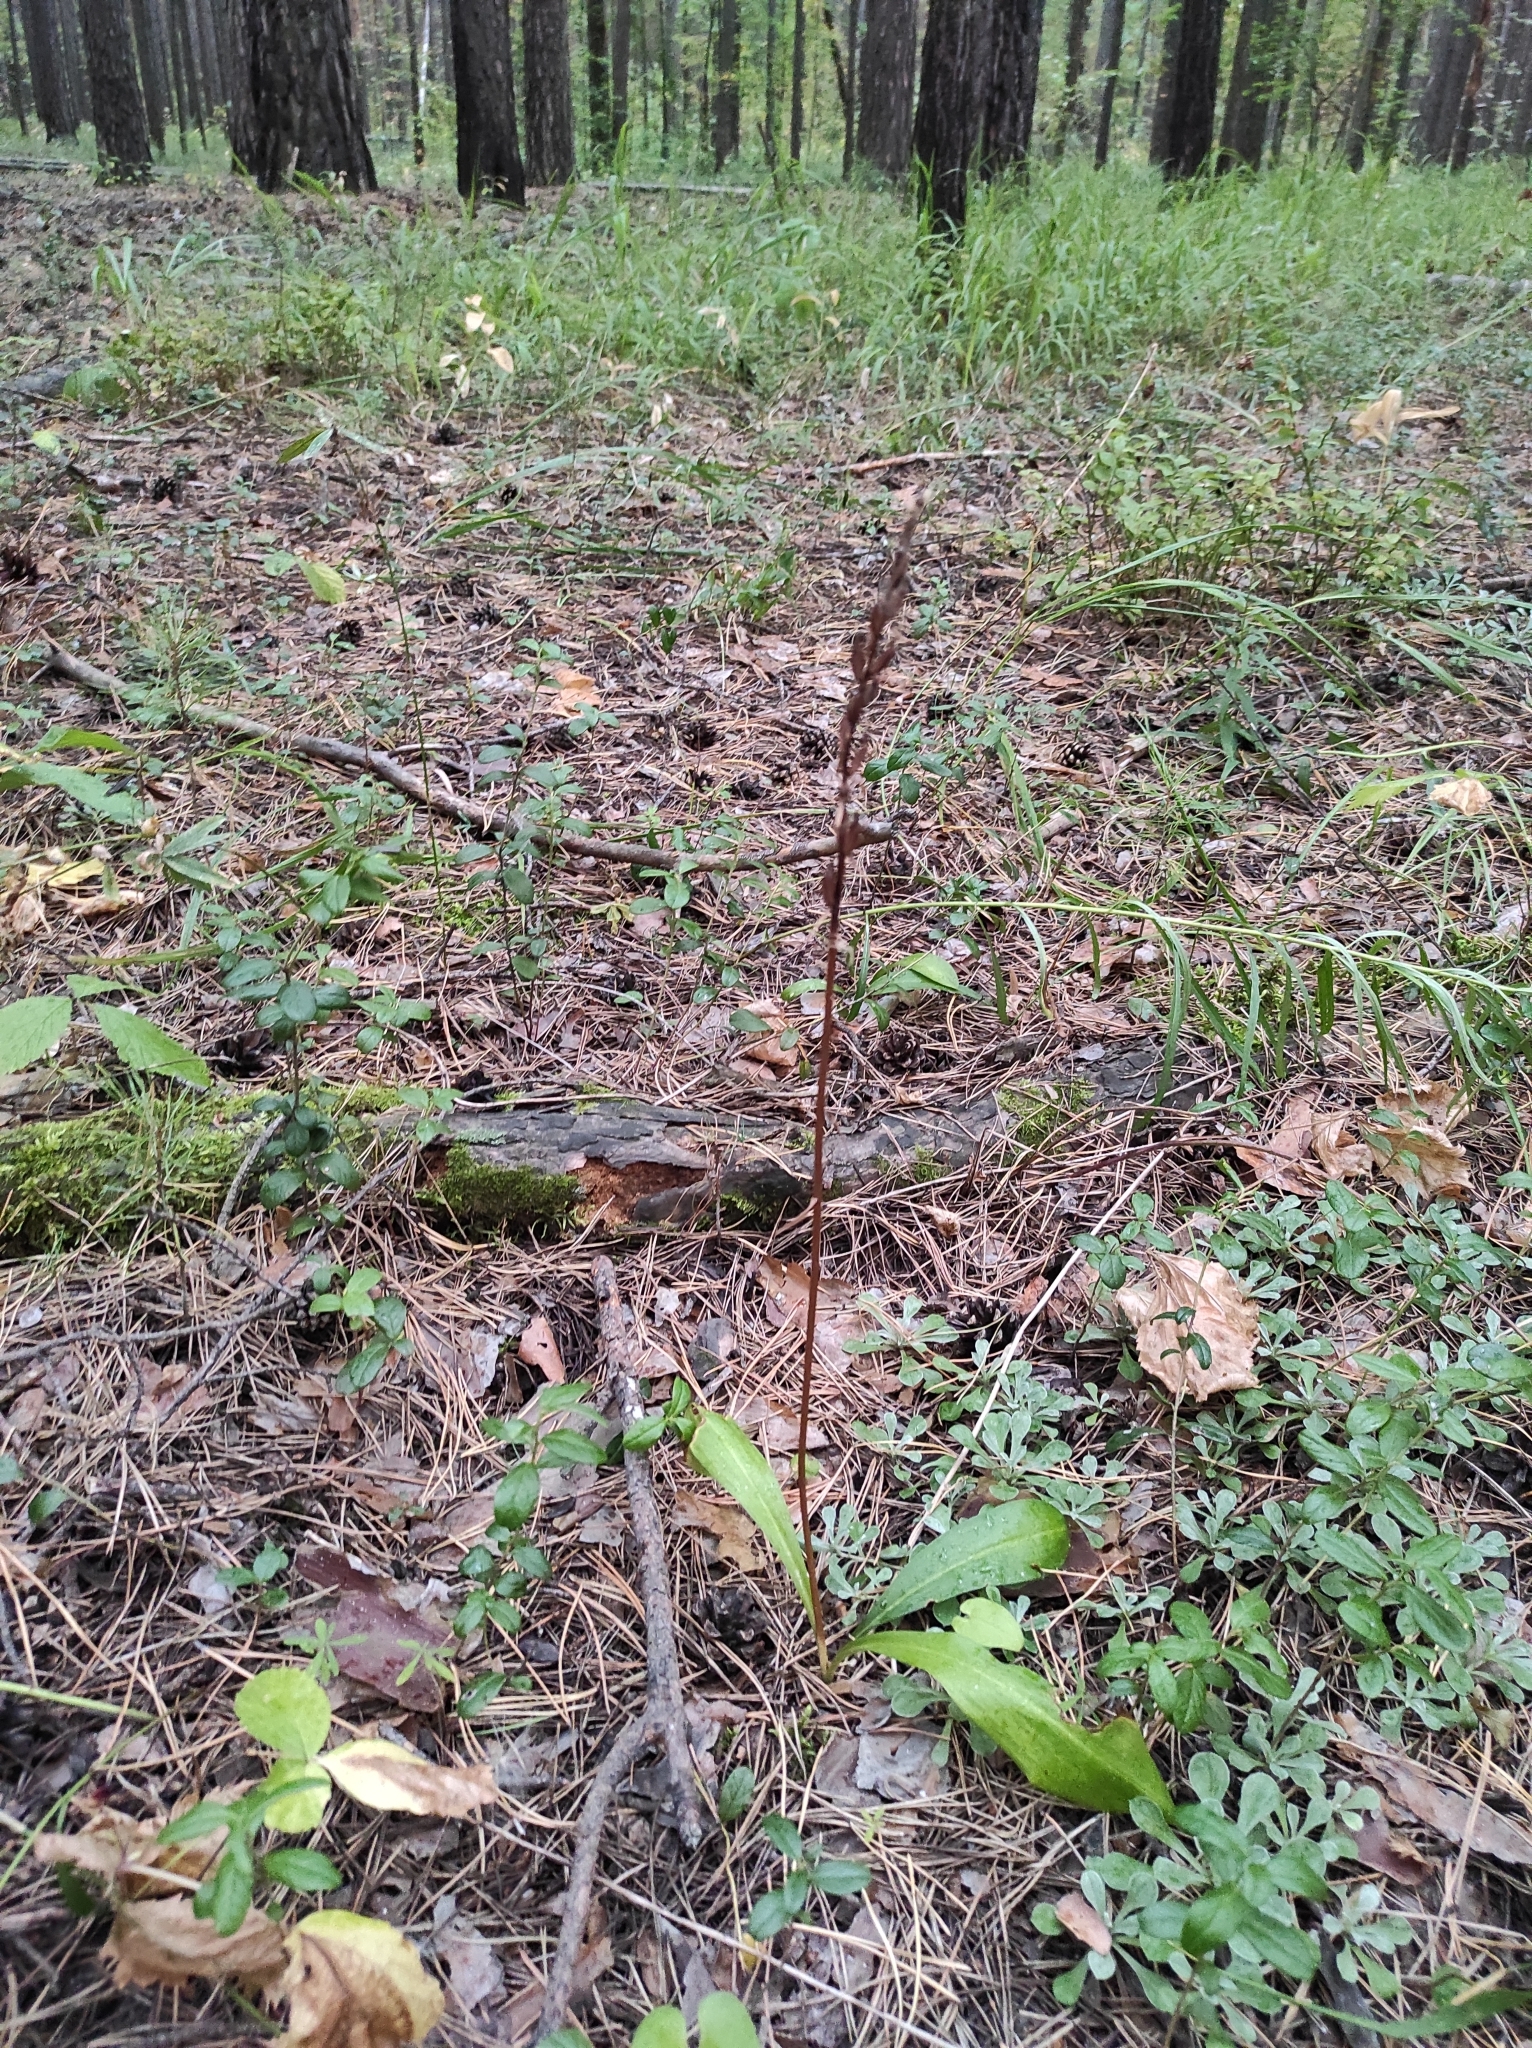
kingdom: Plantae
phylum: Tracheophyta
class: Liliopsida
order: Asparagales
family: Orchidaceae
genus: Platanthera
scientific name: Platanthera bifolia
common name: Lesser butterfly-orchid
